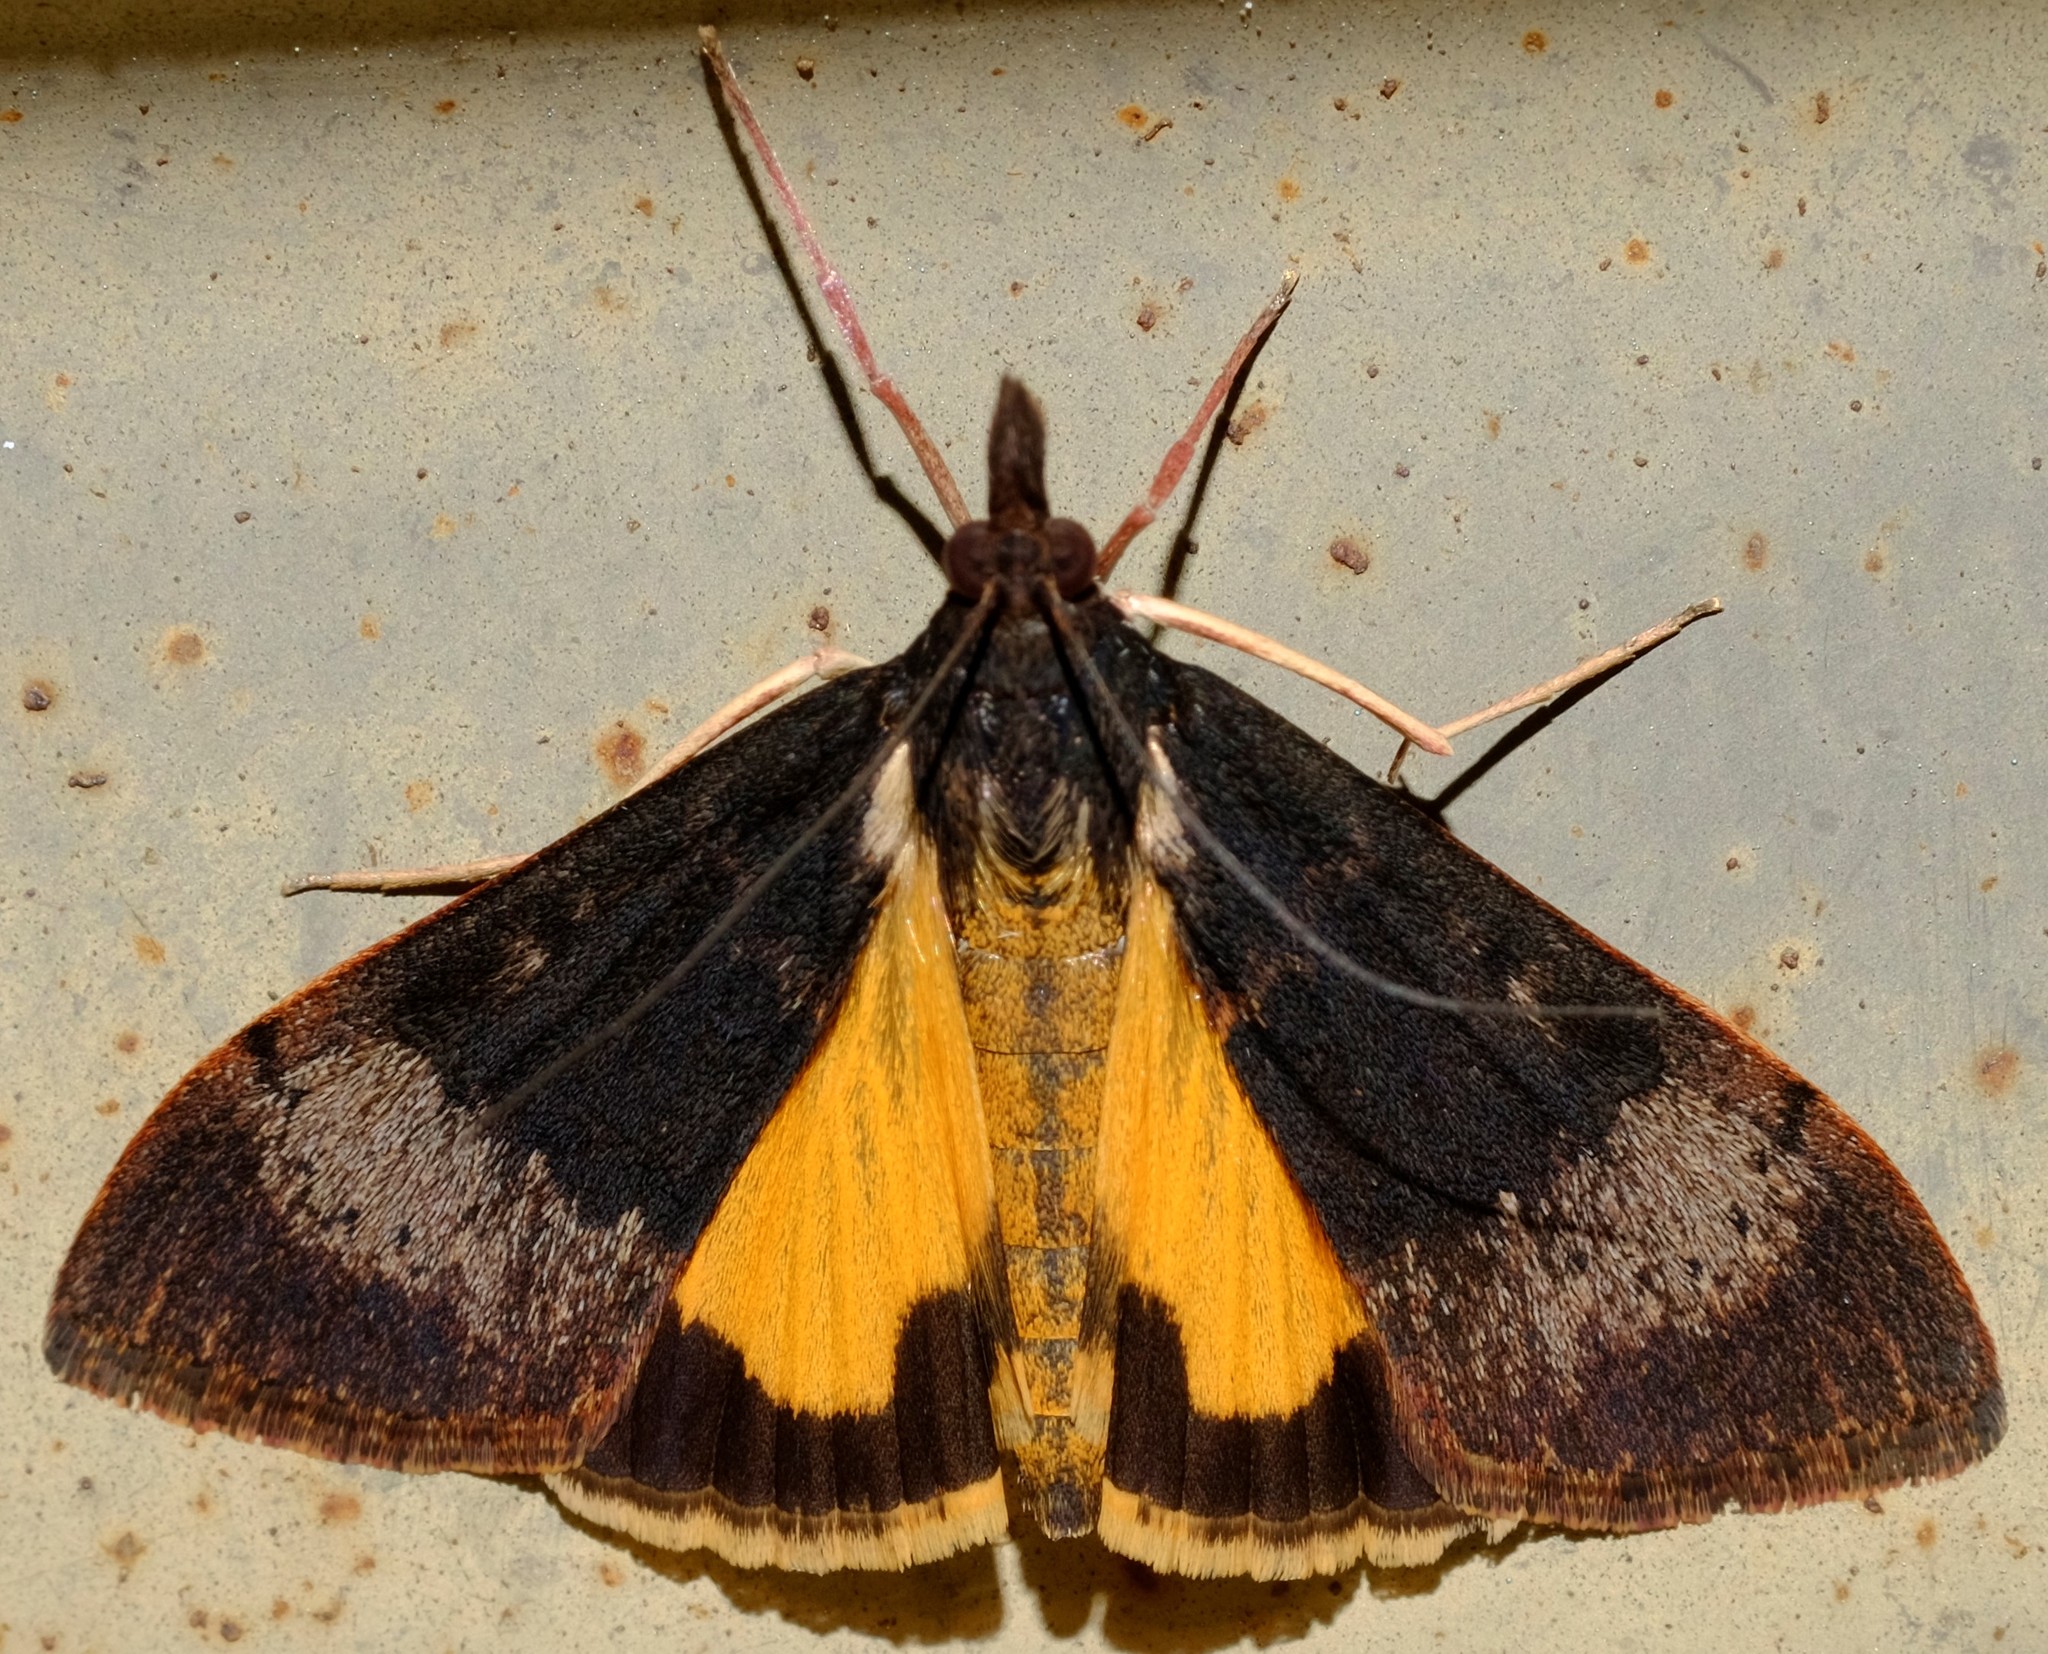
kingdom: Animalia
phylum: Arthropoda
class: Insecta
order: Lepidoptera
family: Crambidae
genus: Uresiphita
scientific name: Uresiphita ornithopteralis
